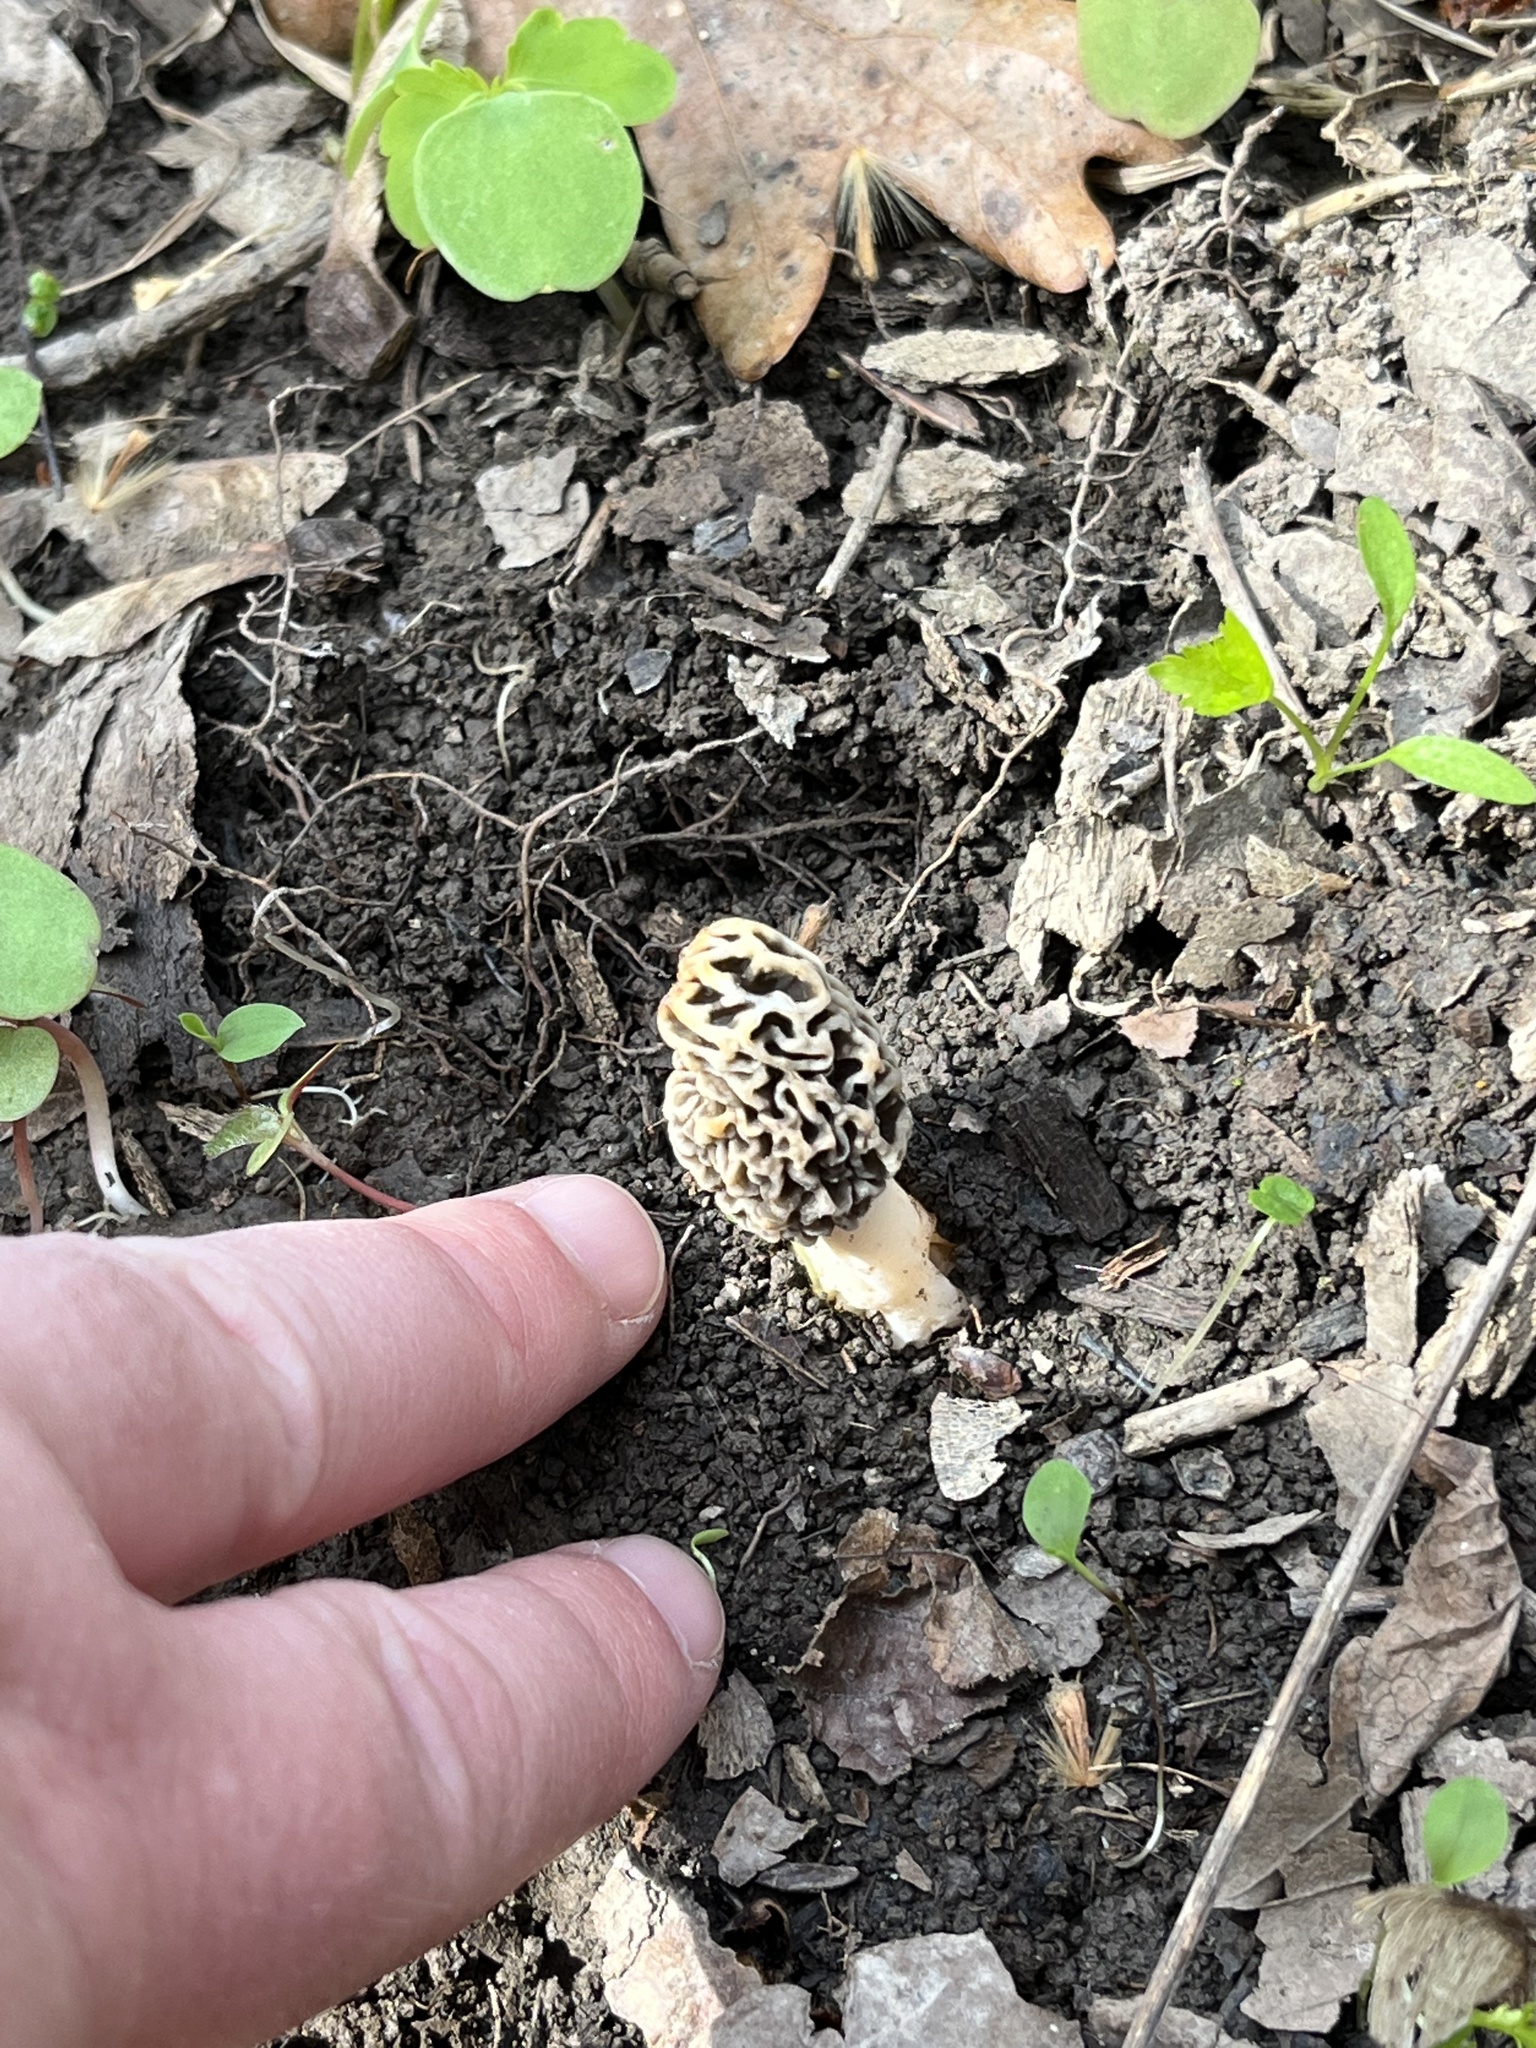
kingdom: Fungi
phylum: Ascomycota
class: Pezizomycetes
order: Pezizales
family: Morchellaceae
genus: Morchella
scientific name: Morchella americana
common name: White morel
